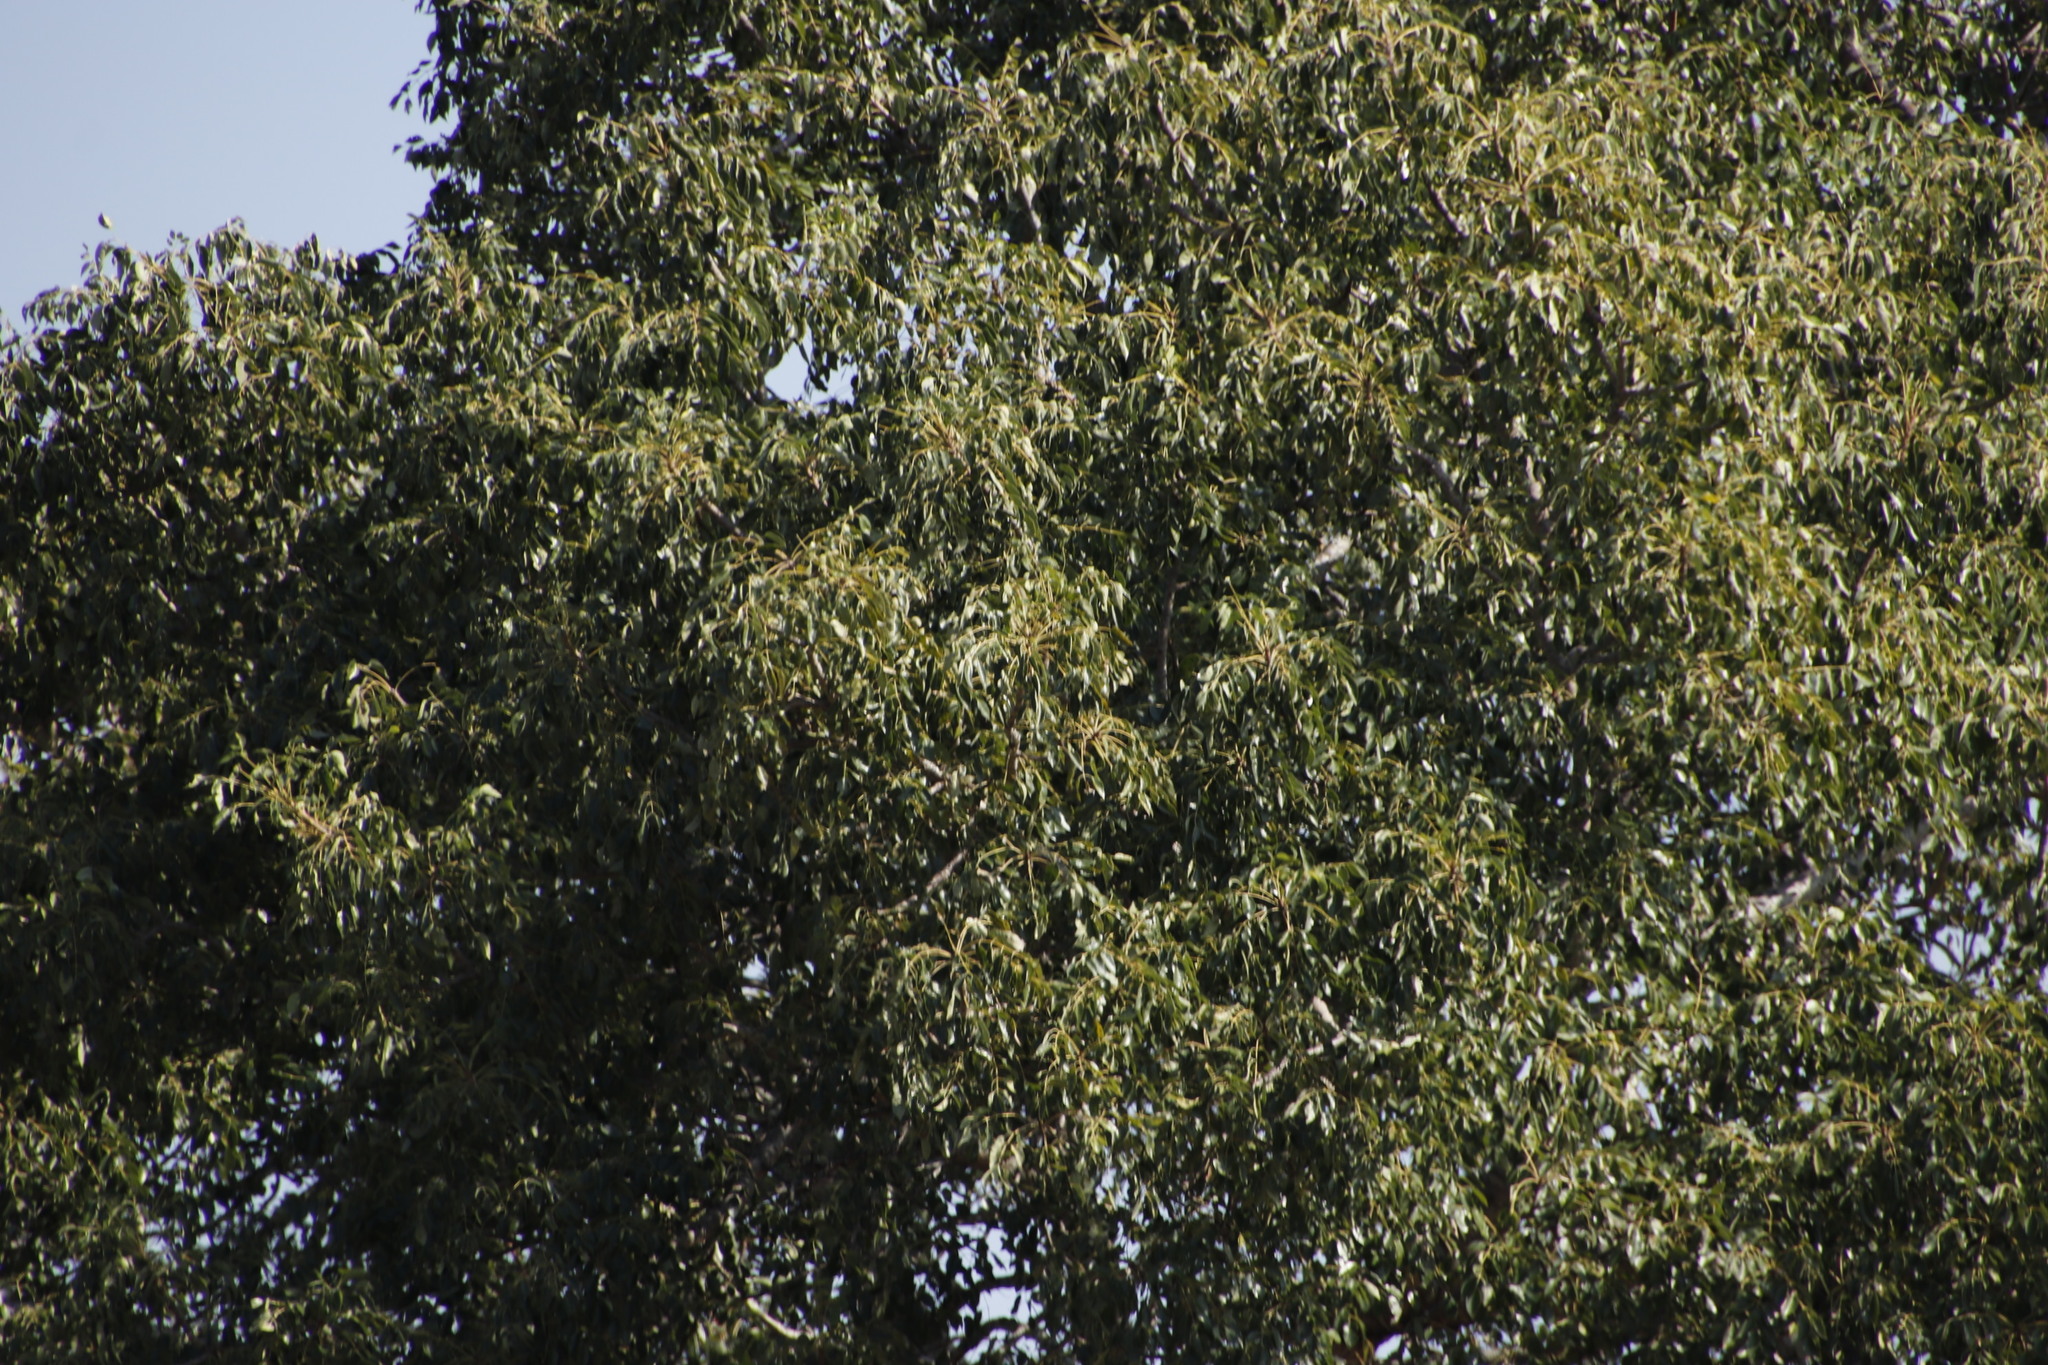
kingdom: Plantae
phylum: Tracheophyta
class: Magnoliopsida
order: Sapindales
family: Anacardiaceae
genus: Sclerocarya
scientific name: Sclerocarya birrea
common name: Marula
